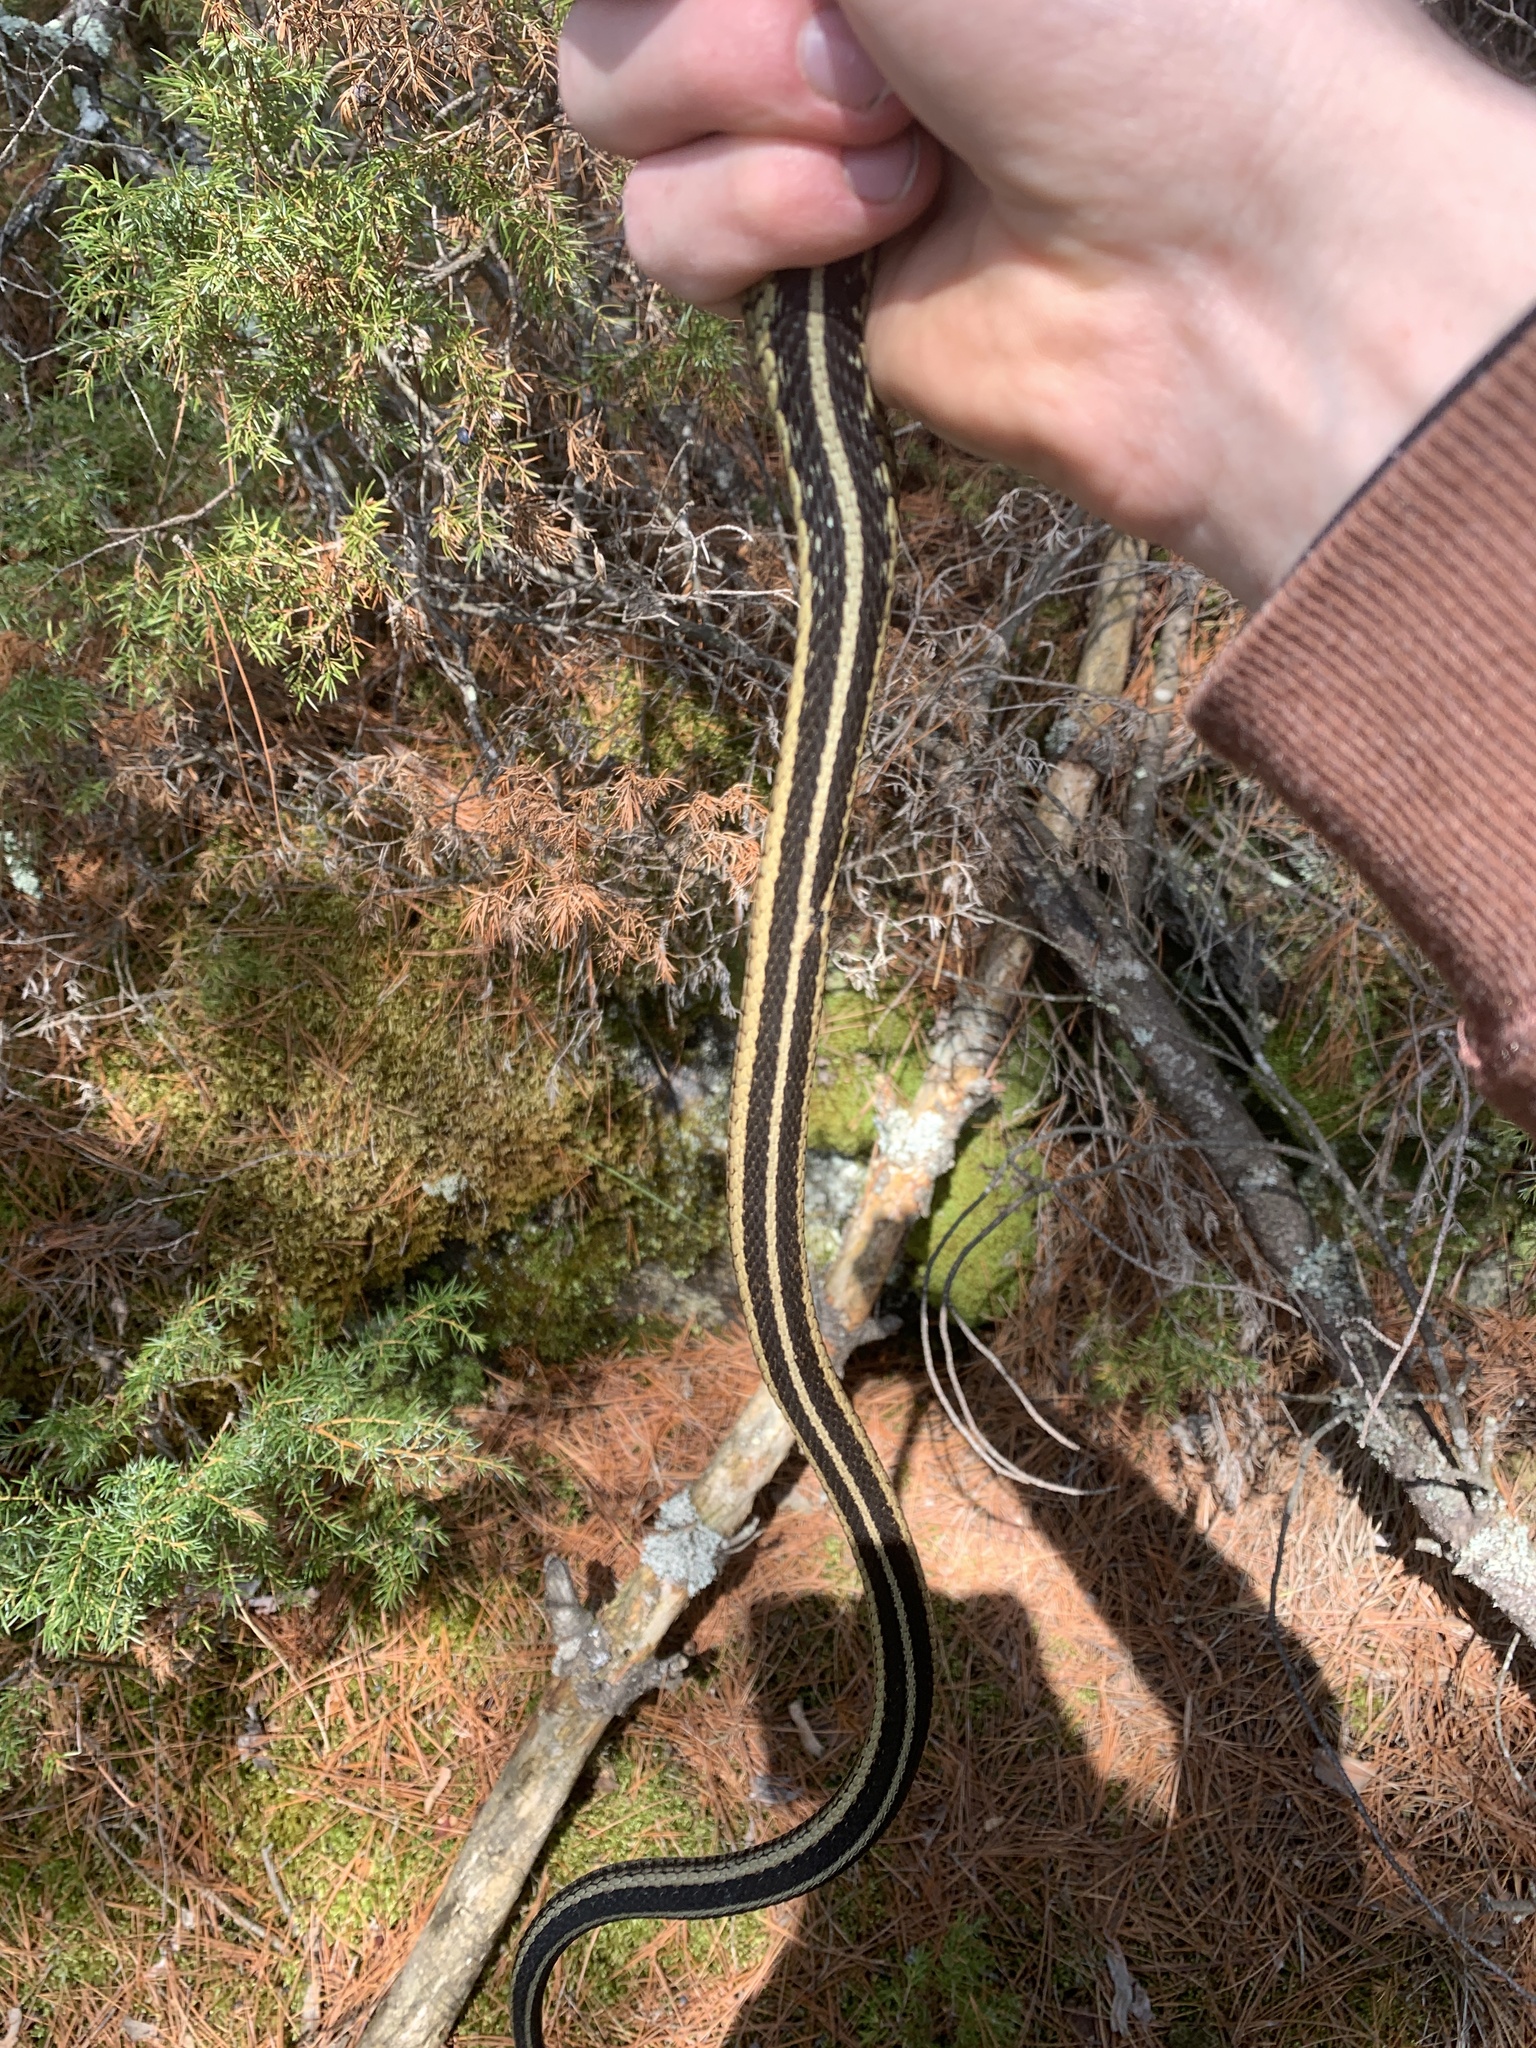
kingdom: Animalia
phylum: Chordata
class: Squamata
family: Colubridae
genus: Thamnophis
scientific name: Thamnophis sirtalis
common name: Common garter snake
